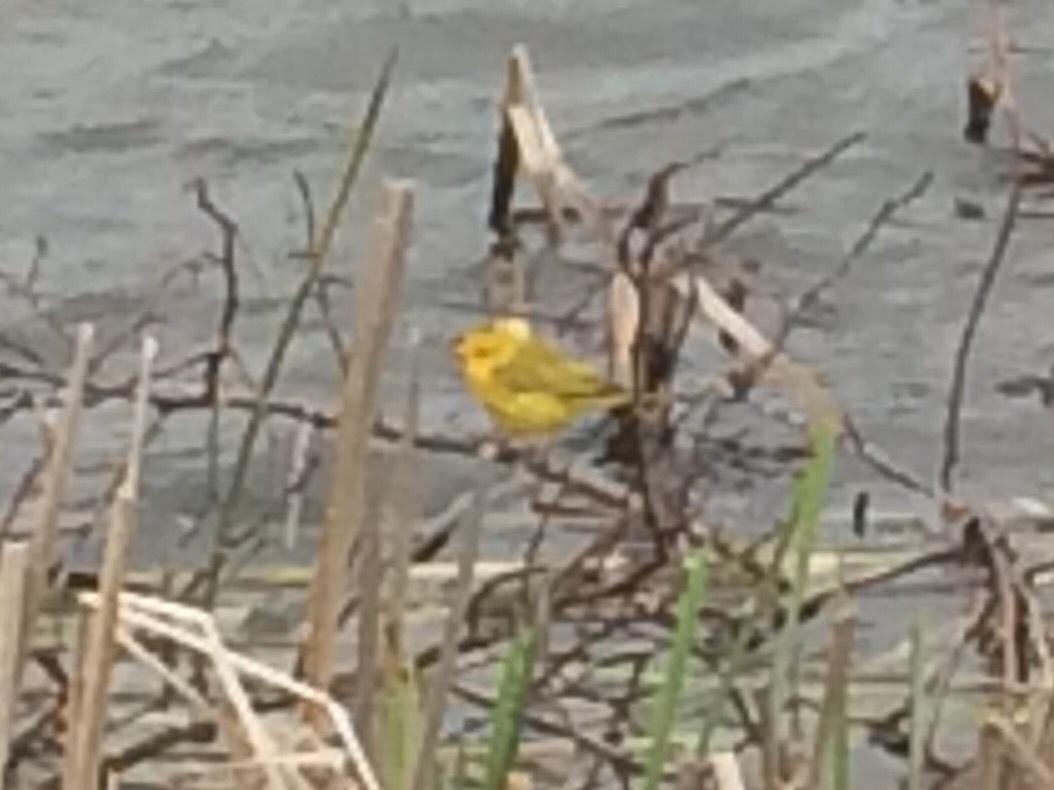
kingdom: Animalia
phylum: Chordata
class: Aves
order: Passeriformes
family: Parulidae
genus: Setophaga
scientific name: Setophaga petechia
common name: Yellow warbler
